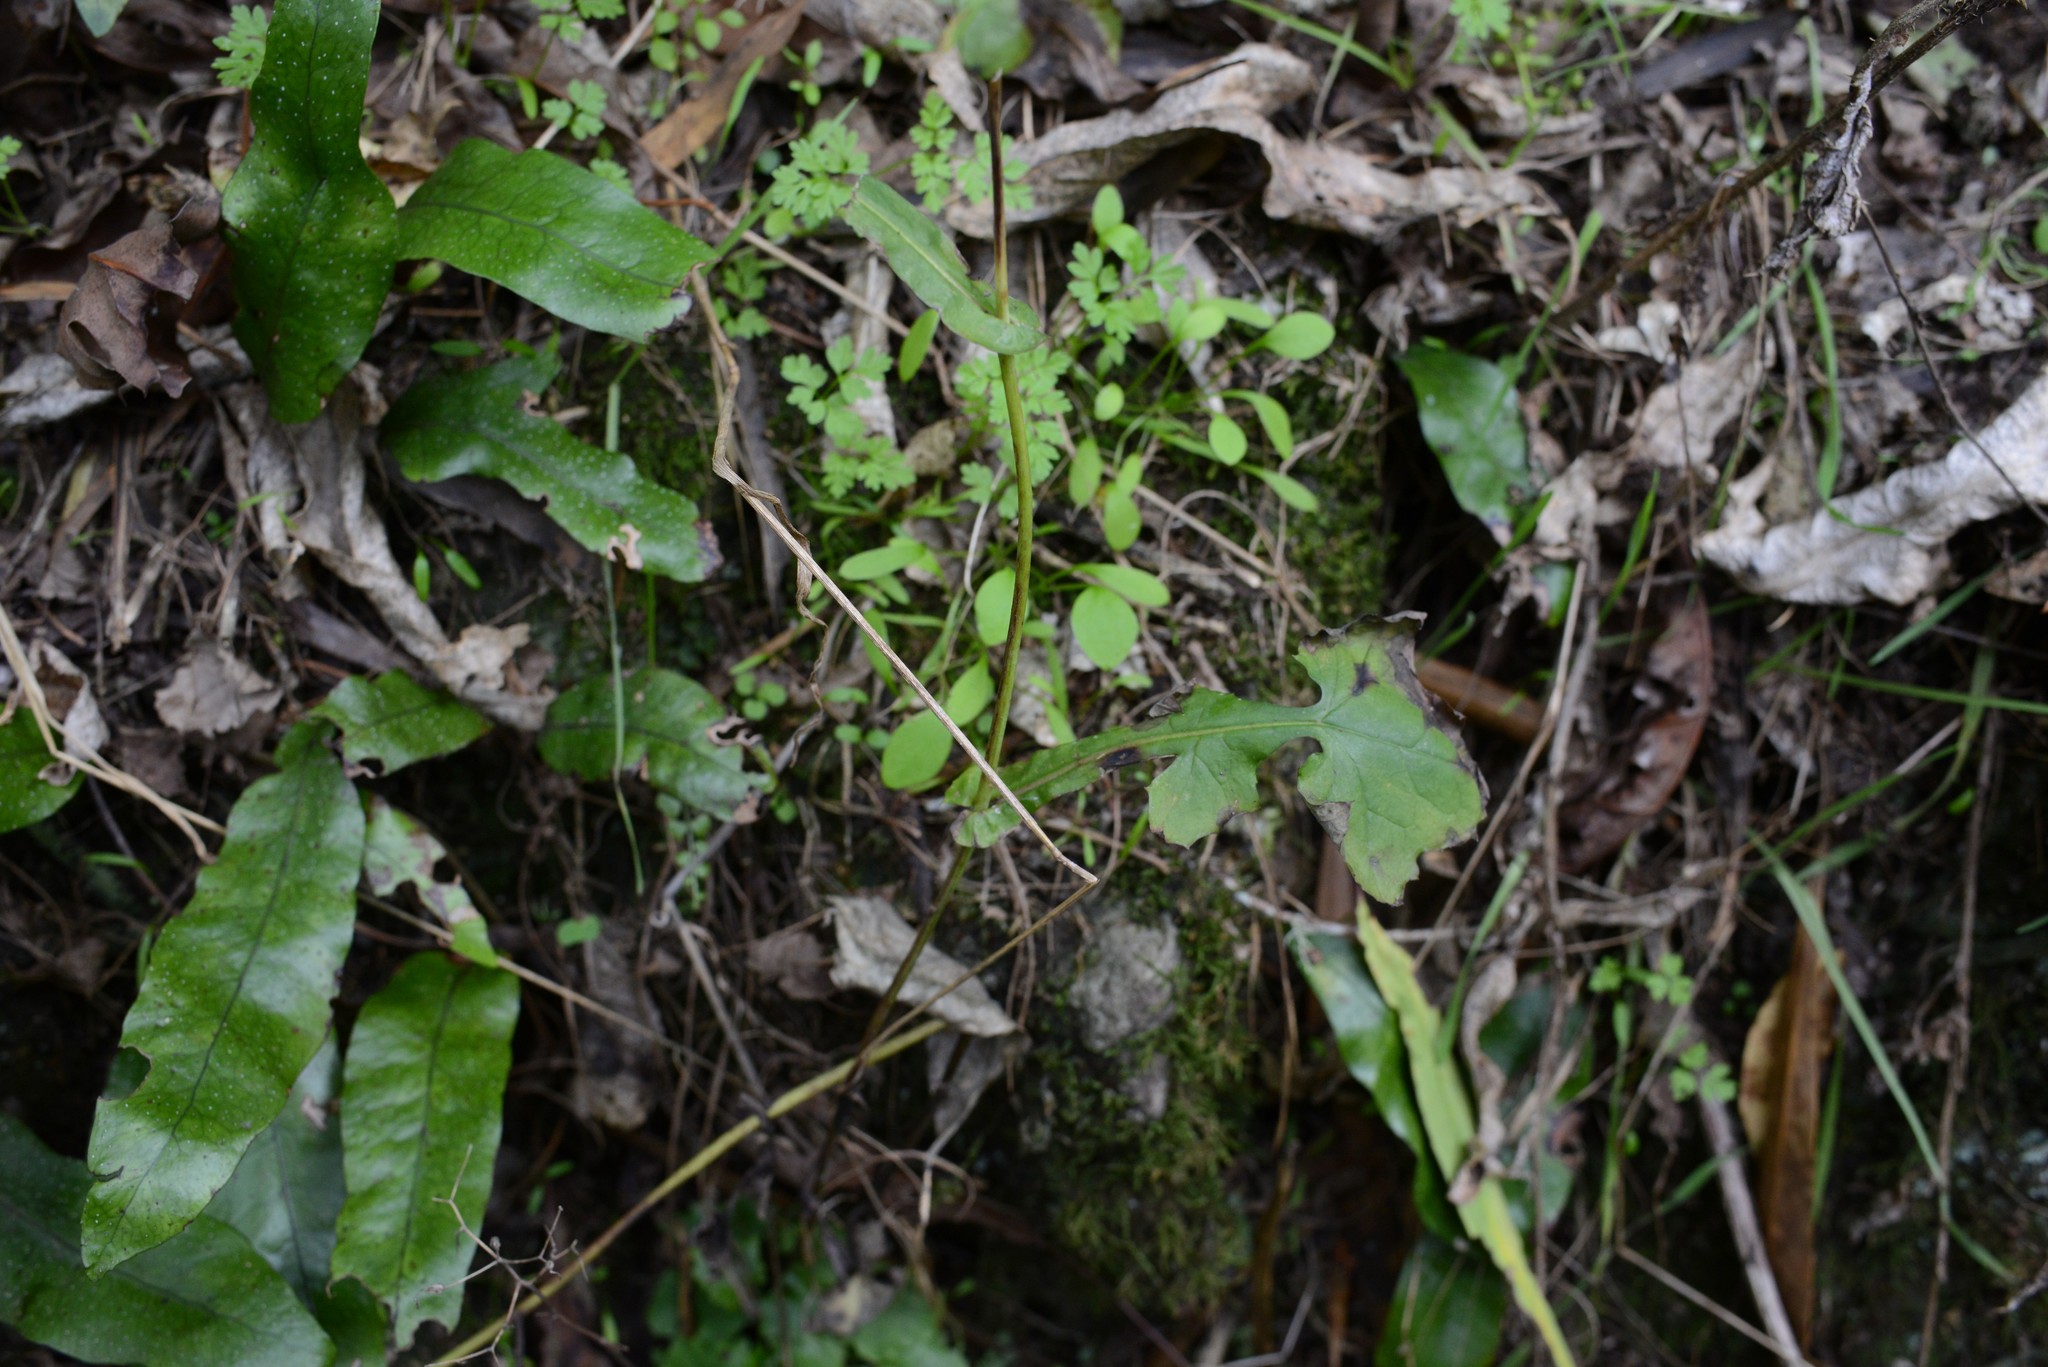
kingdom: Plantae
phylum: Tracheophyta
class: Magnoliopsida
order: Asterales
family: Asteraceae
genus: Mycelis
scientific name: Mycelis muralis
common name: Wall lettuce
